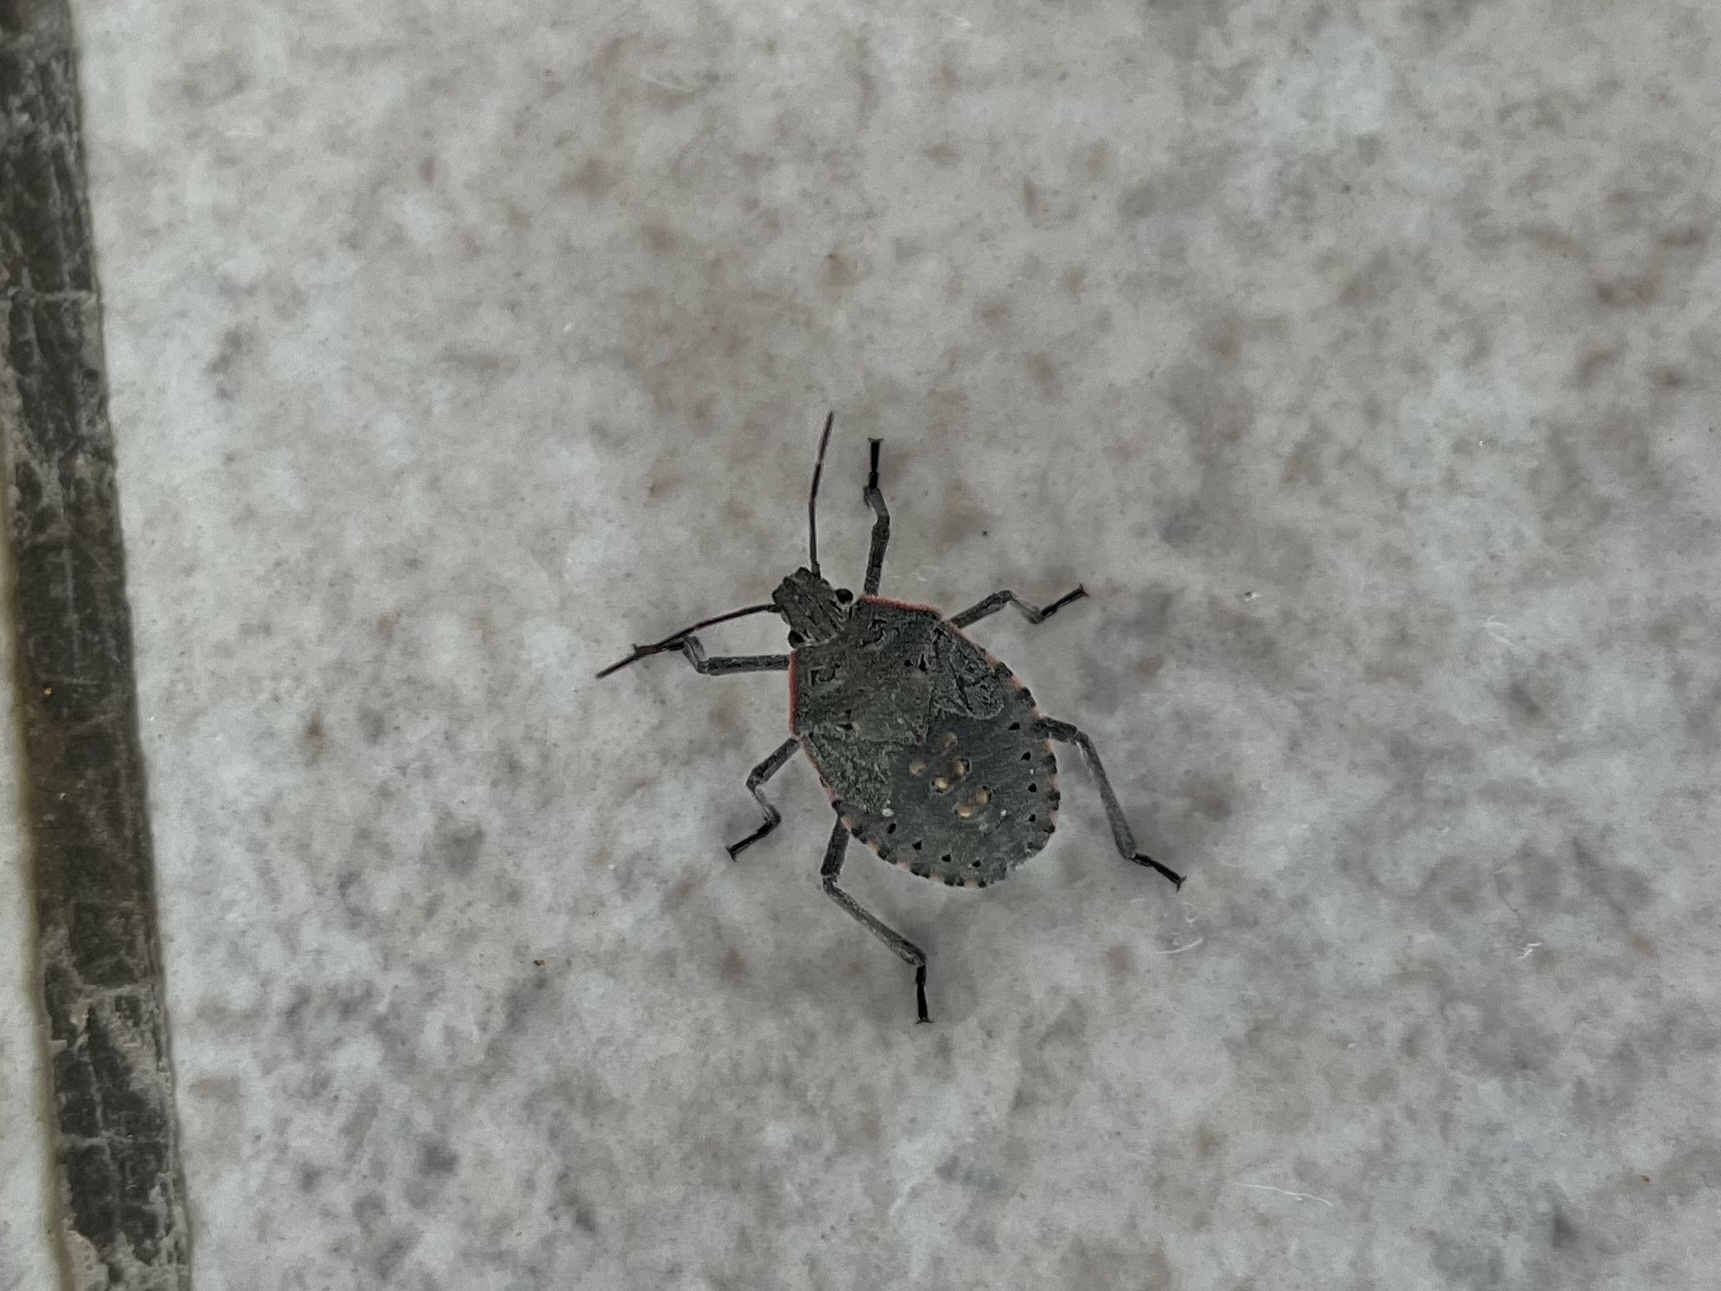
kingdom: Animalia
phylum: Arthropoda
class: Insecta
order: Hemiptera
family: Pentatomidae
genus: Apodiphus
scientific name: Apodiphus amygdali
